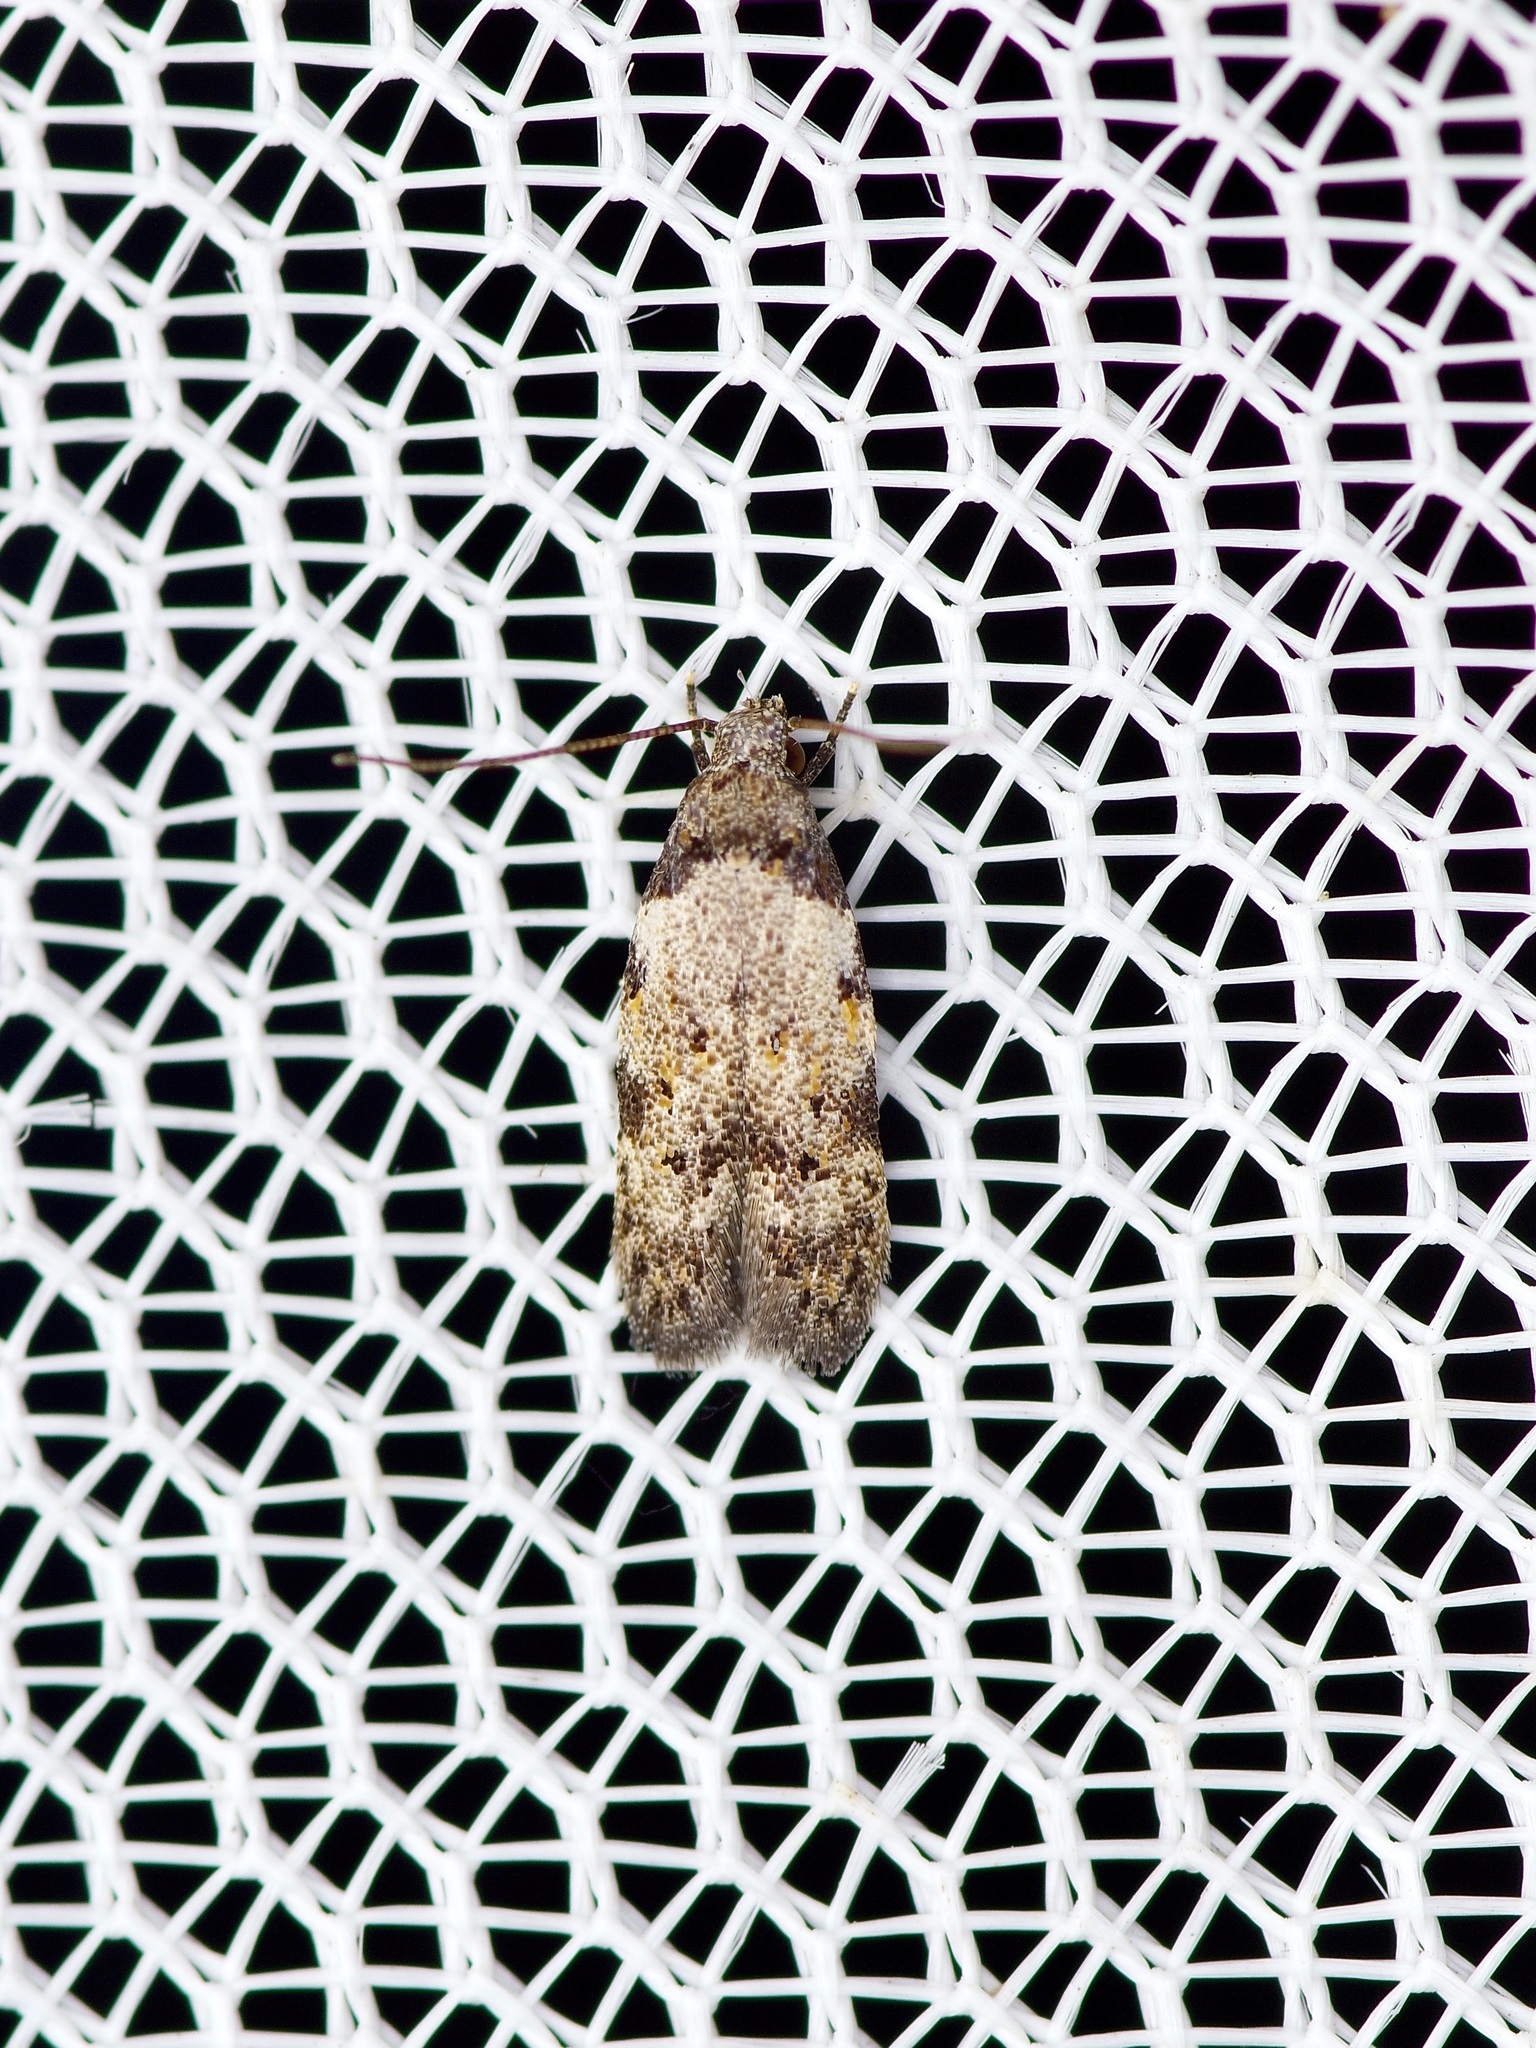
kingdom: Animalia
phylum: Arthropoda
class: Insecta
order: Lepidoptera
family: Autostichidae
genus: Taygete
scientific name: Taygete attributella
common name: Triangle-marked twirler moth
